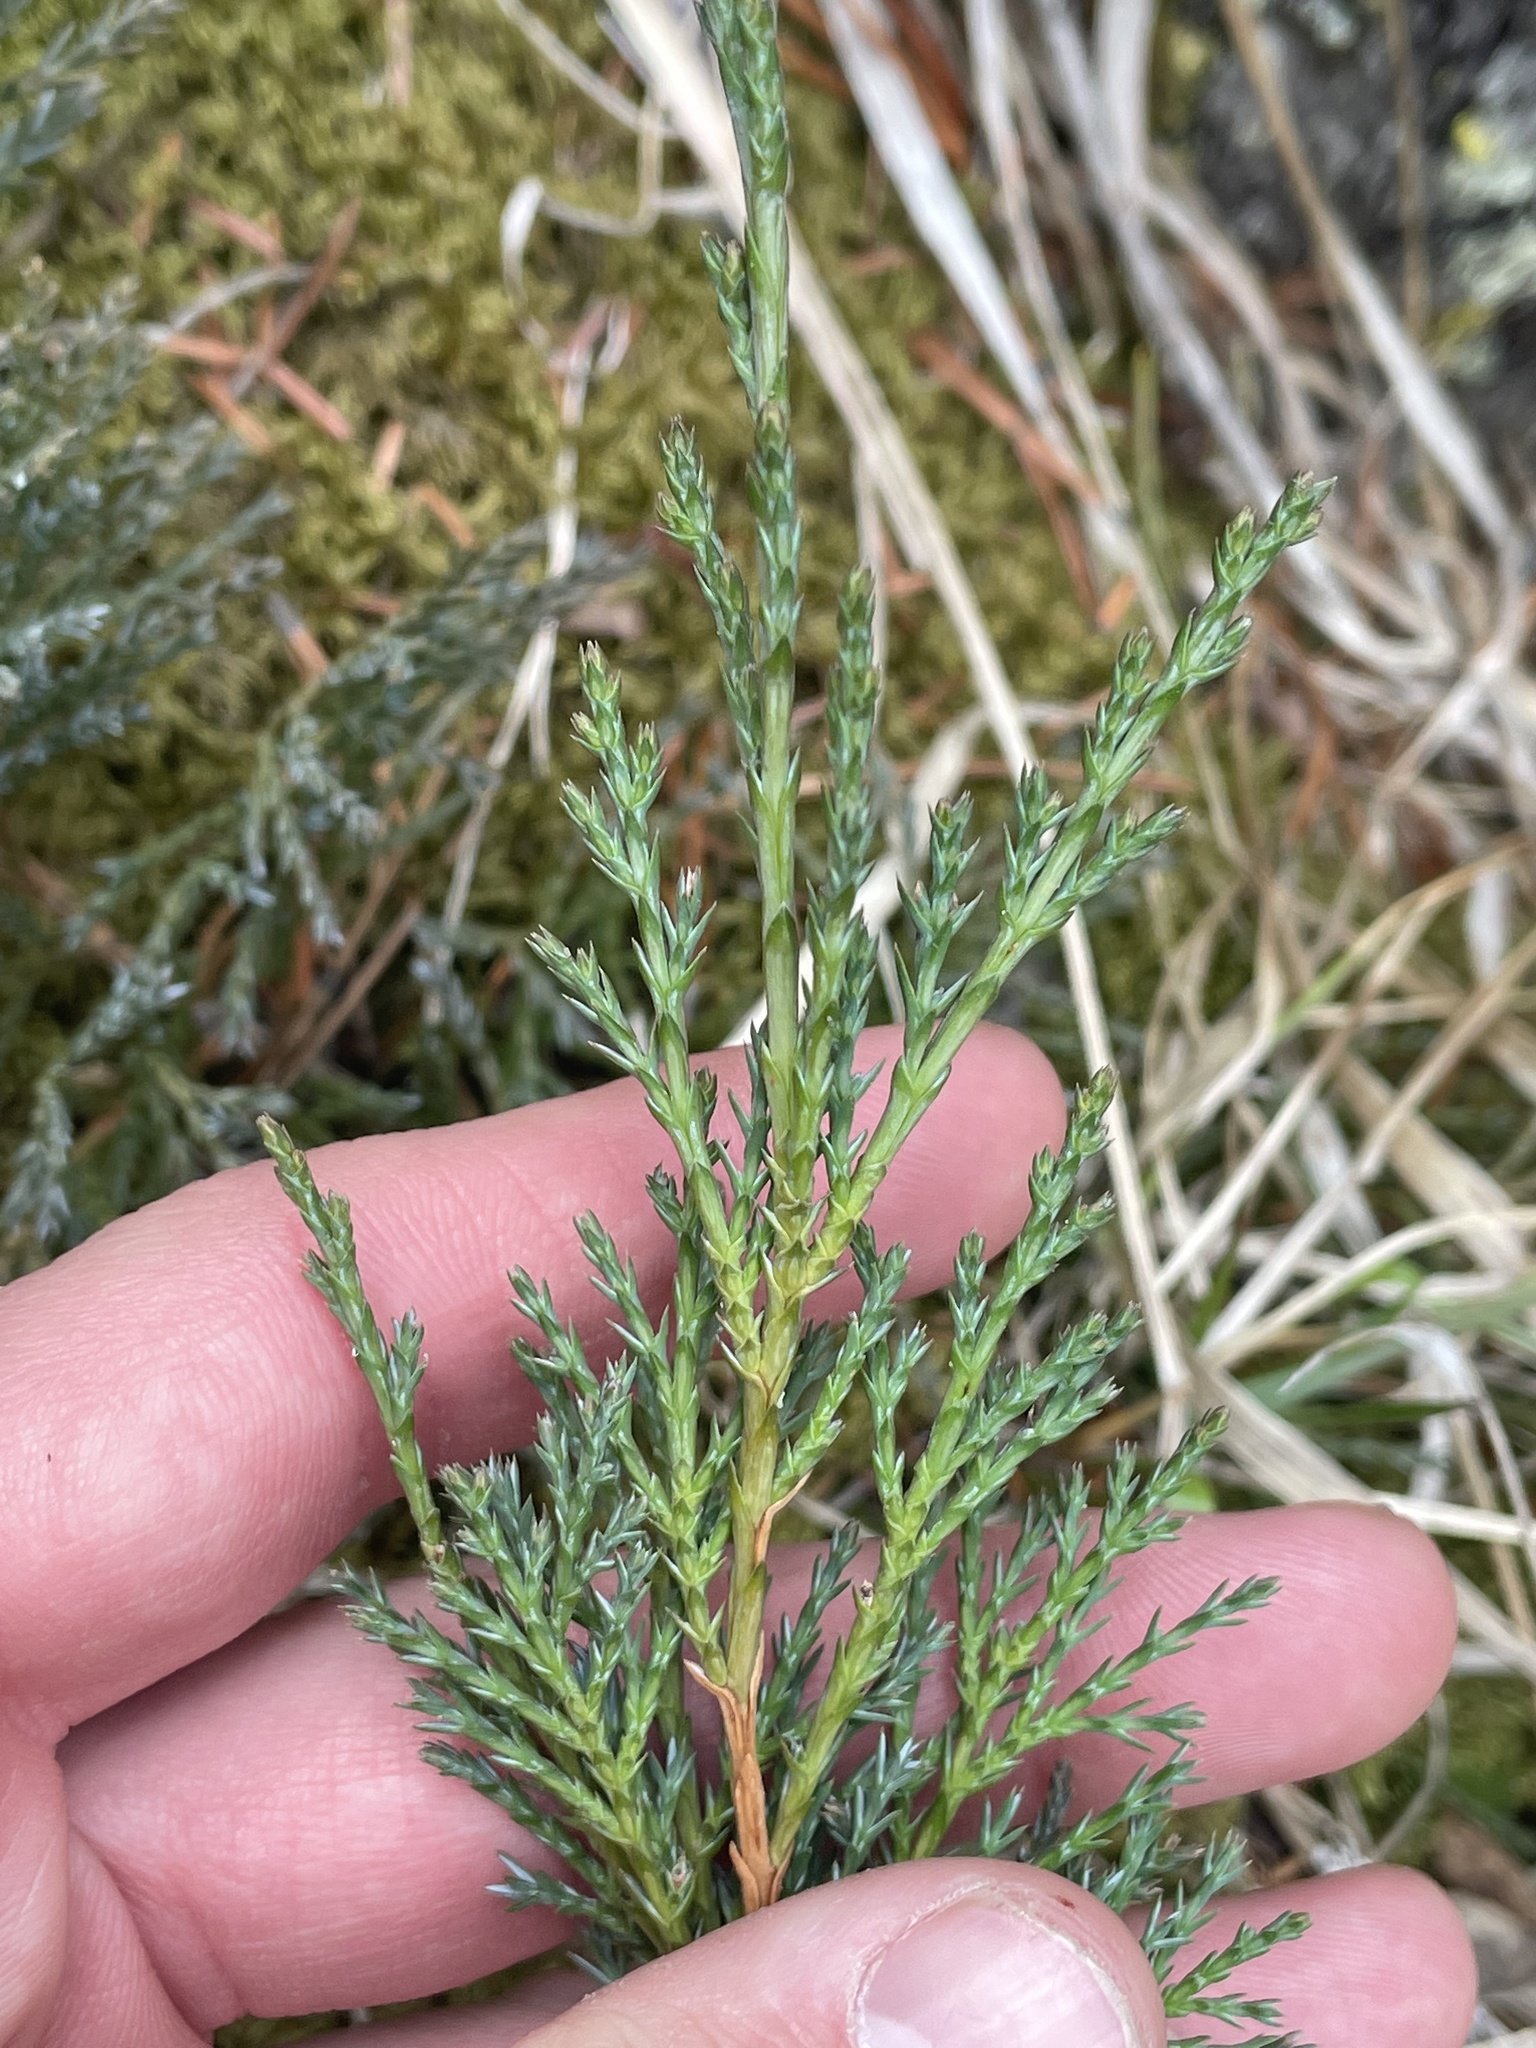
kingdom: Plantae
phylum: Tracheophyta
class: Pinopsida
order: Pinales
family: Cupressaceae
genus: Juniperus
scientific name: Juniperus horizontalis
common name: Creeping juniper
